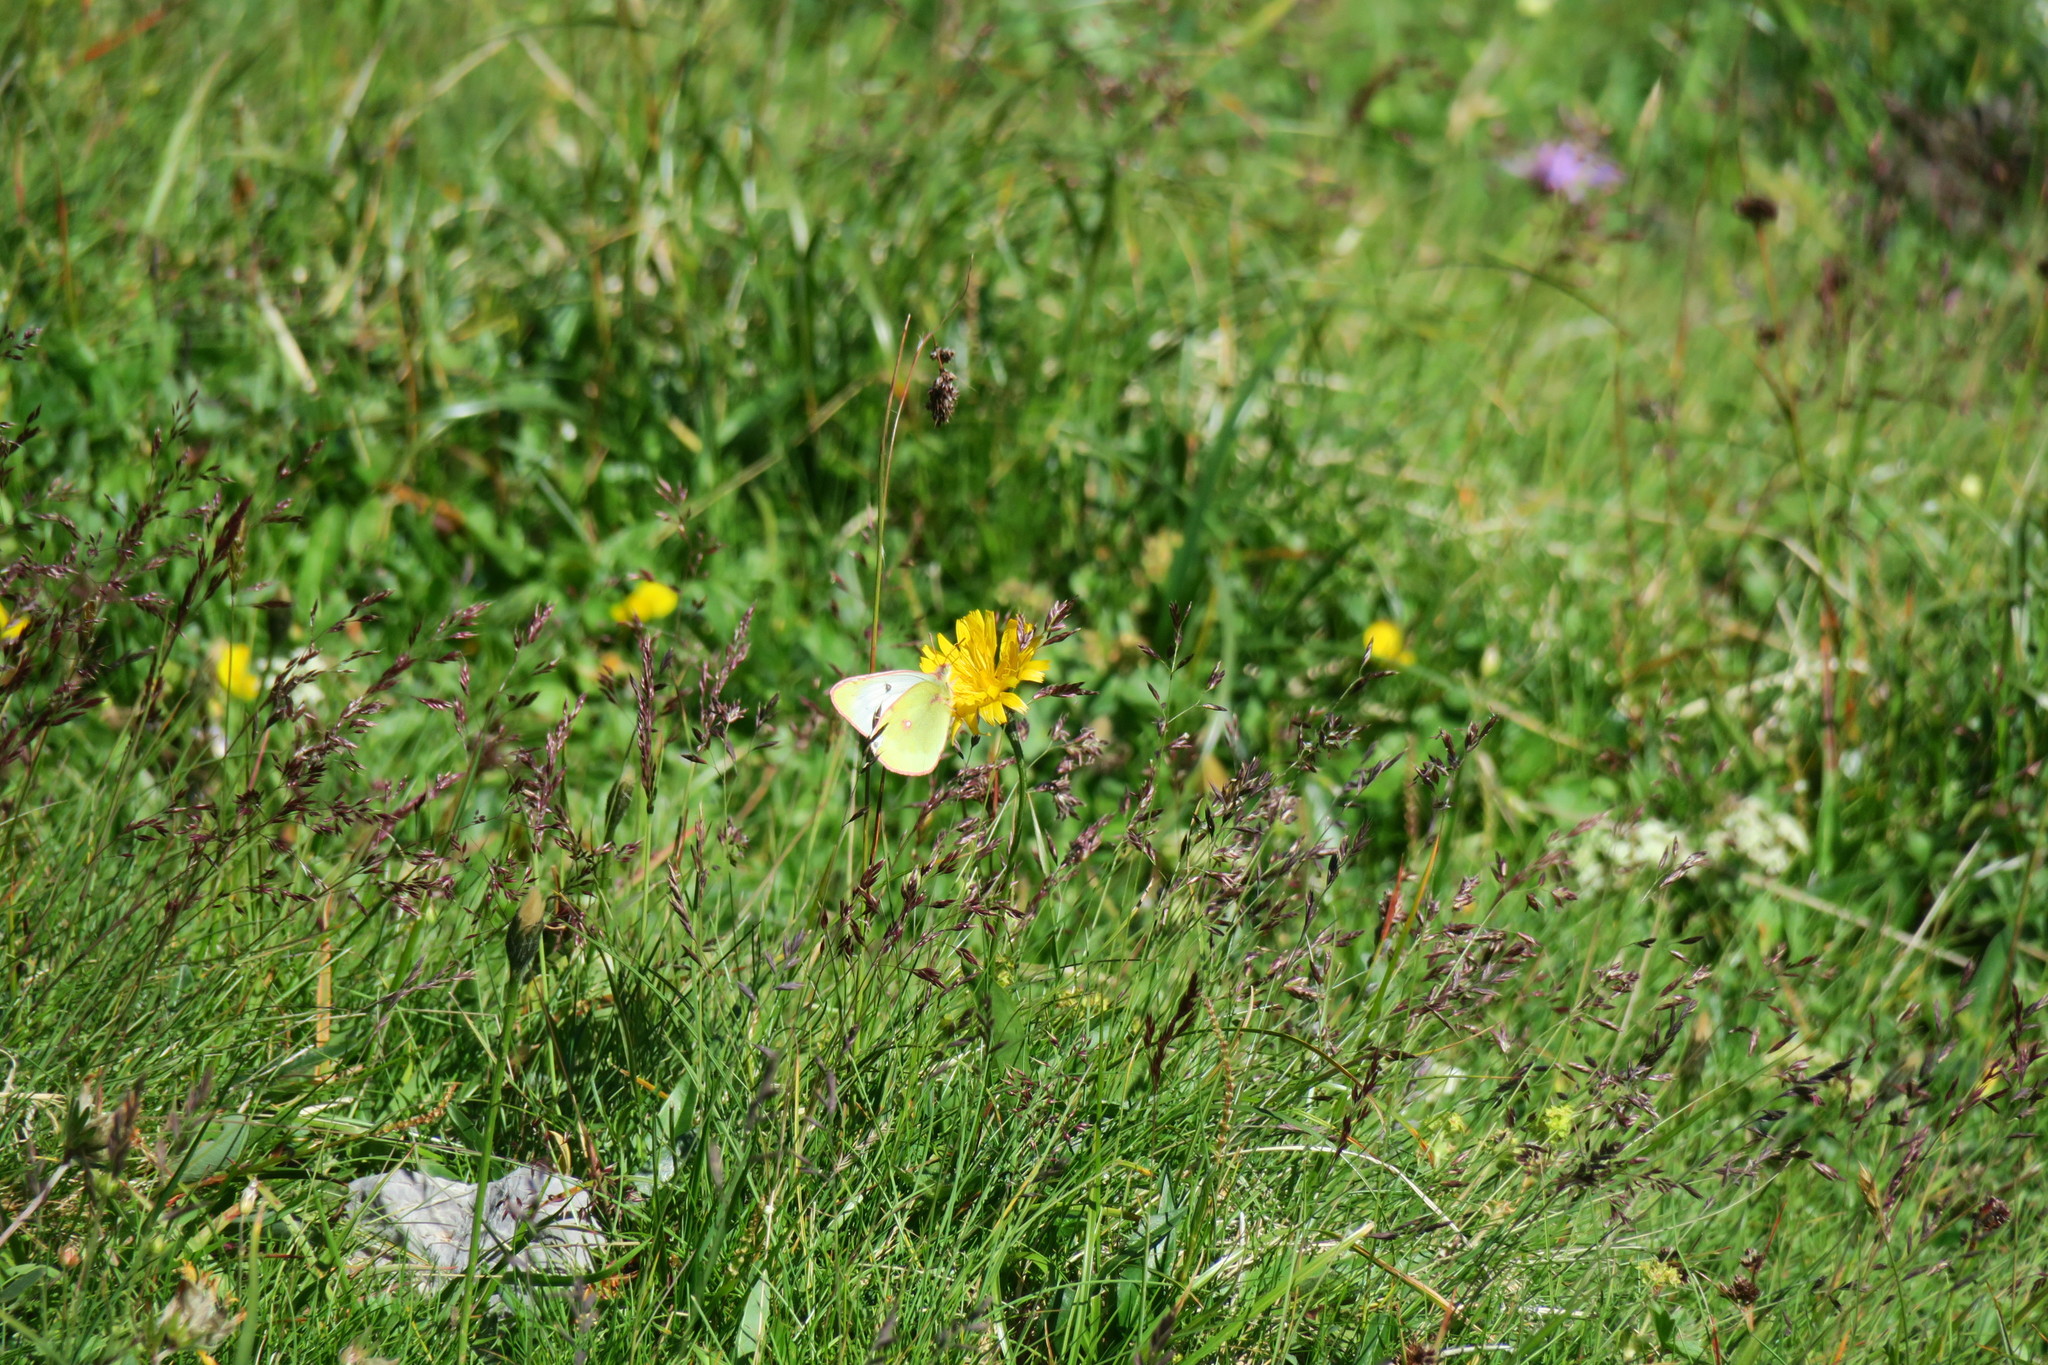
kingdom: Animalia
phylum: Arthropoda
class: Insecta
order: Lepidoptera
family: Pieridae
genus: Colias
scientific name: Colias phicomone
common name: Mountain clouded yellow
